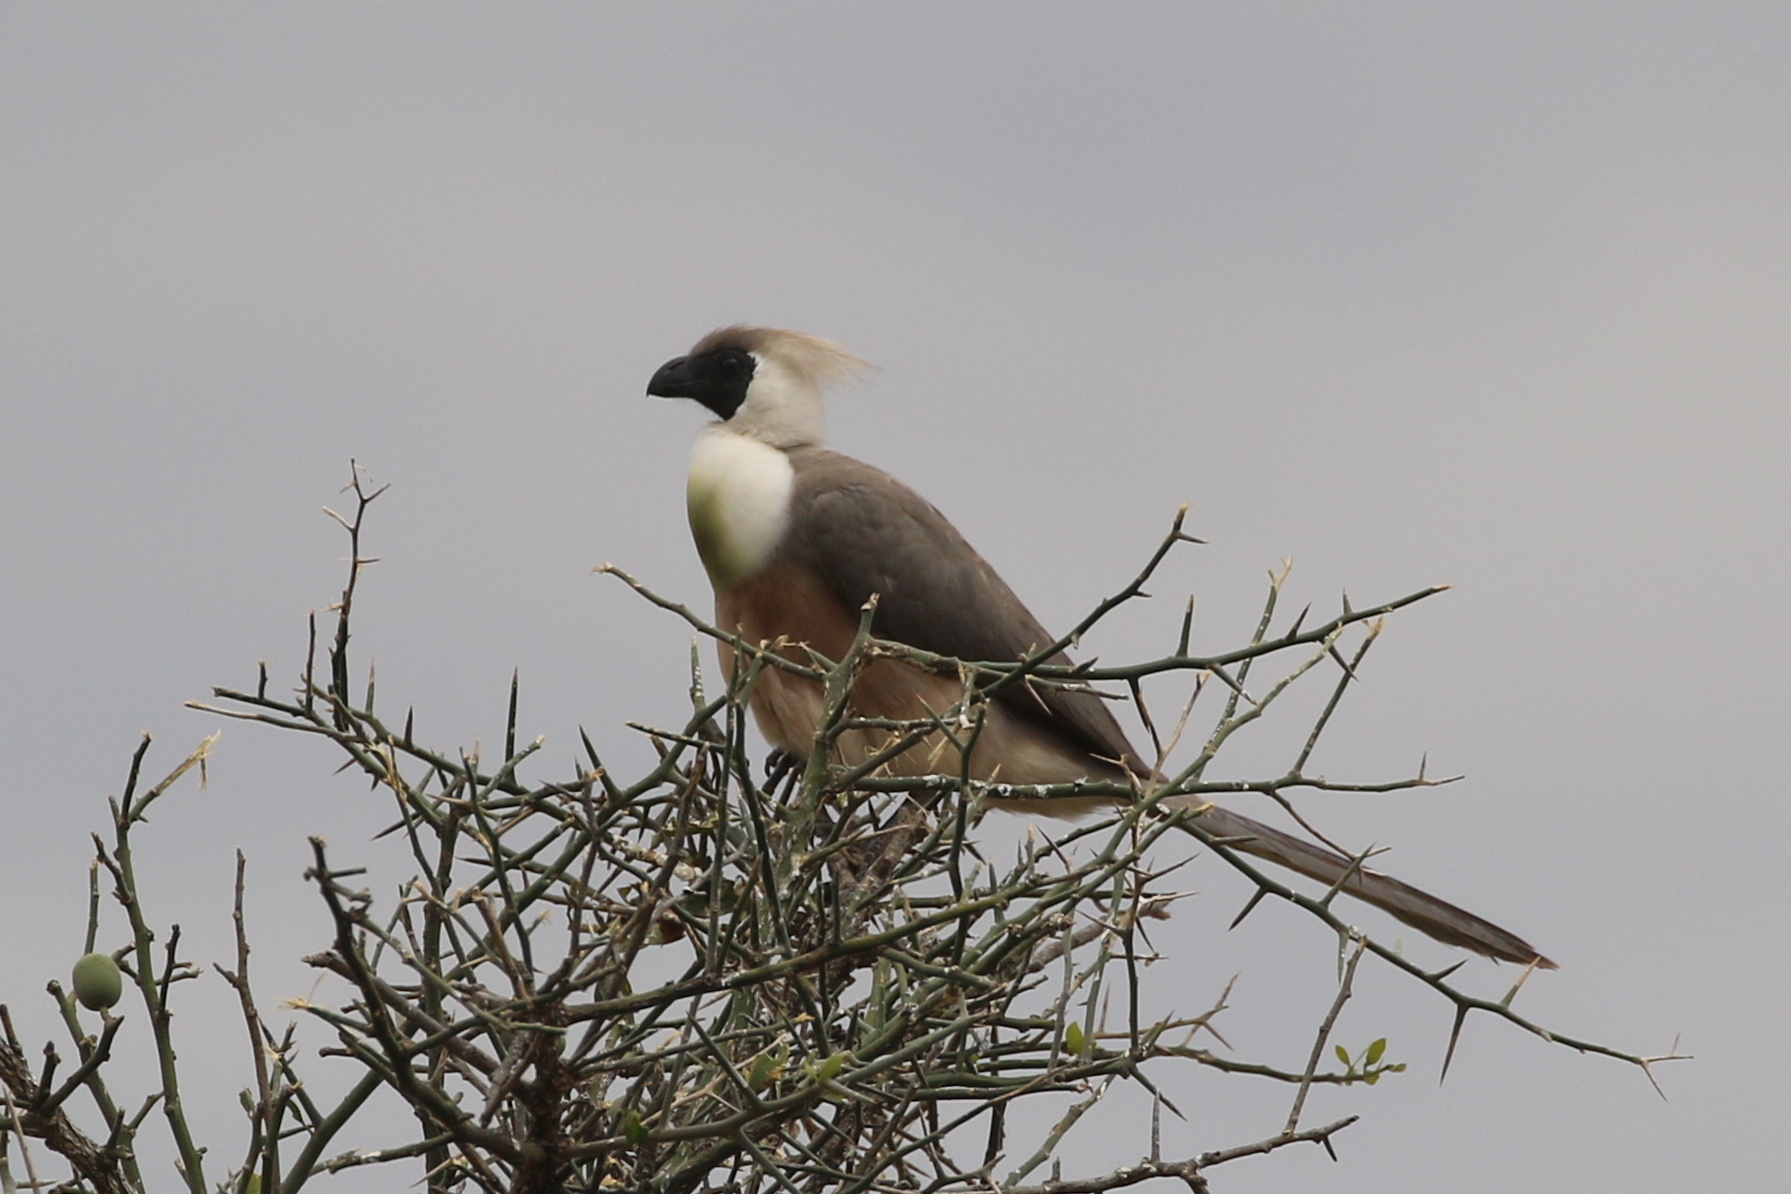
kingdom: Animalia
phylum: Chordata
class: Aves
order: Musophagiformes
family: Musophagidae
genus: Corythaixoides
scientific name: Corythaixoides personatus
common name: Bare-faced go-away-bird
